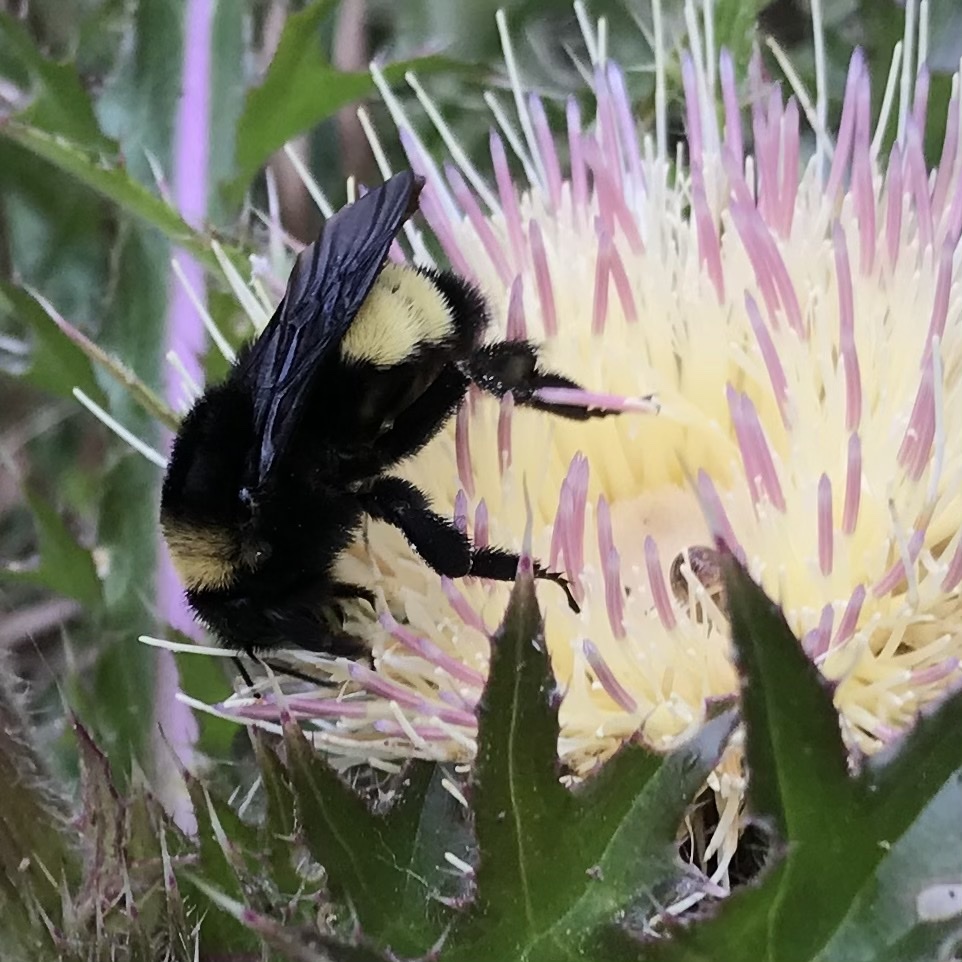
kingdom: Animalia
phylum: Arthropoda
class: Insecta
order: Hymenoptera
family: Apidae
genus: Bombus
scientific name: Bombus pensylvanicus
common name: Bumble bee
